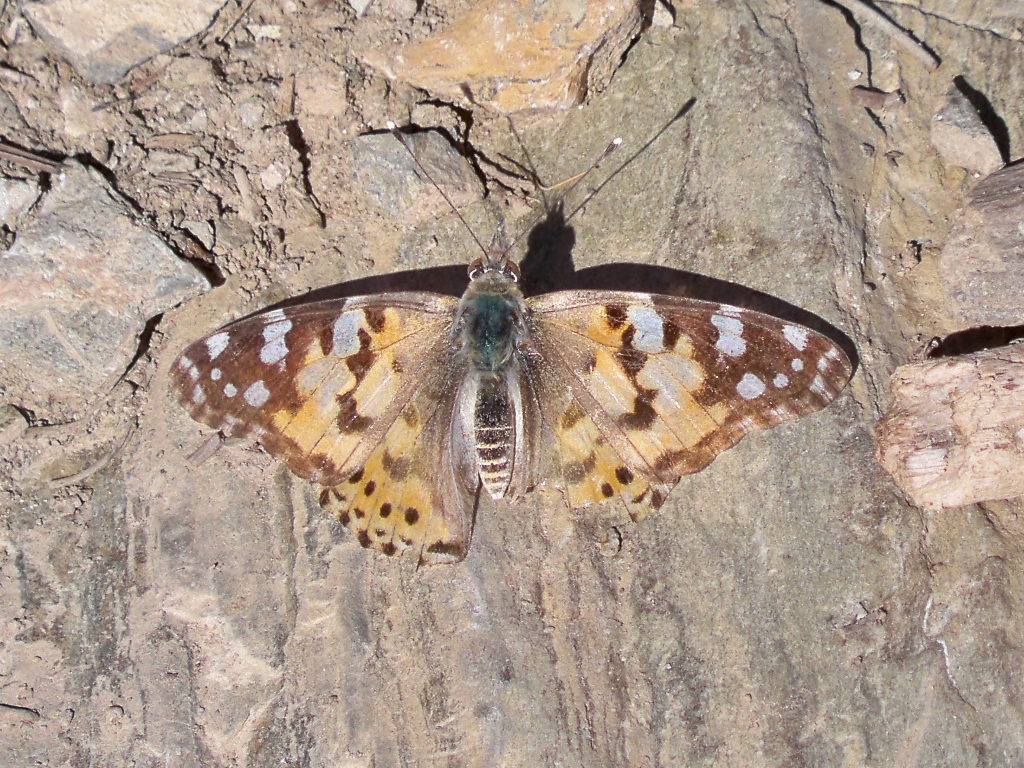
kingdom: Animalia
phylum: Arthropoda
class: Insecta
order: Lepidoptera
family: Nymphalidae
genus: Vanessa
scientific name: Vanessa cardui
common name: Painted lady
